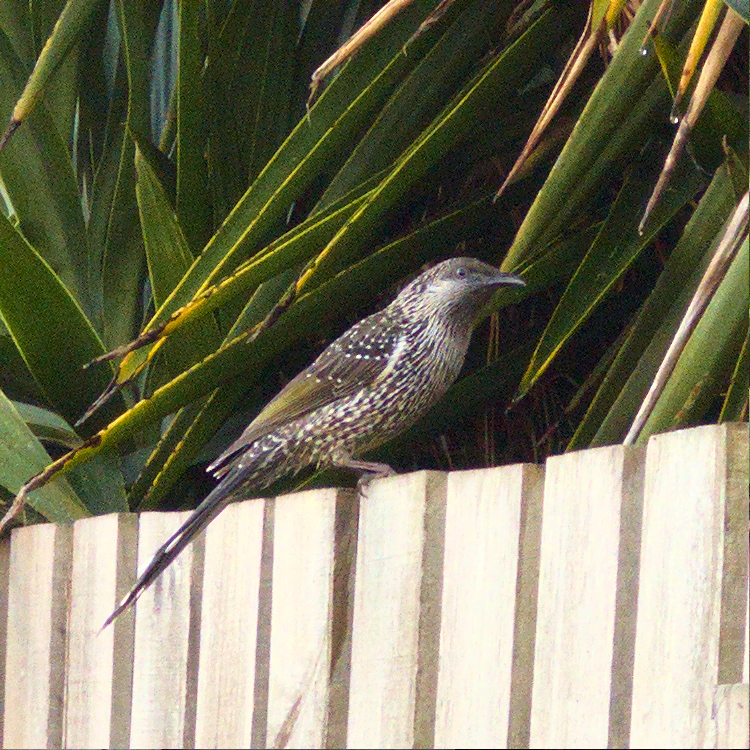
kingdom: Animalia
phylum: Chordata
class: Aves
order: Passeriformes
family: Meliphagidae
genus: Anthochaera
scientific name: Anthochaera chrysoptera
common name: Little wattlebird
